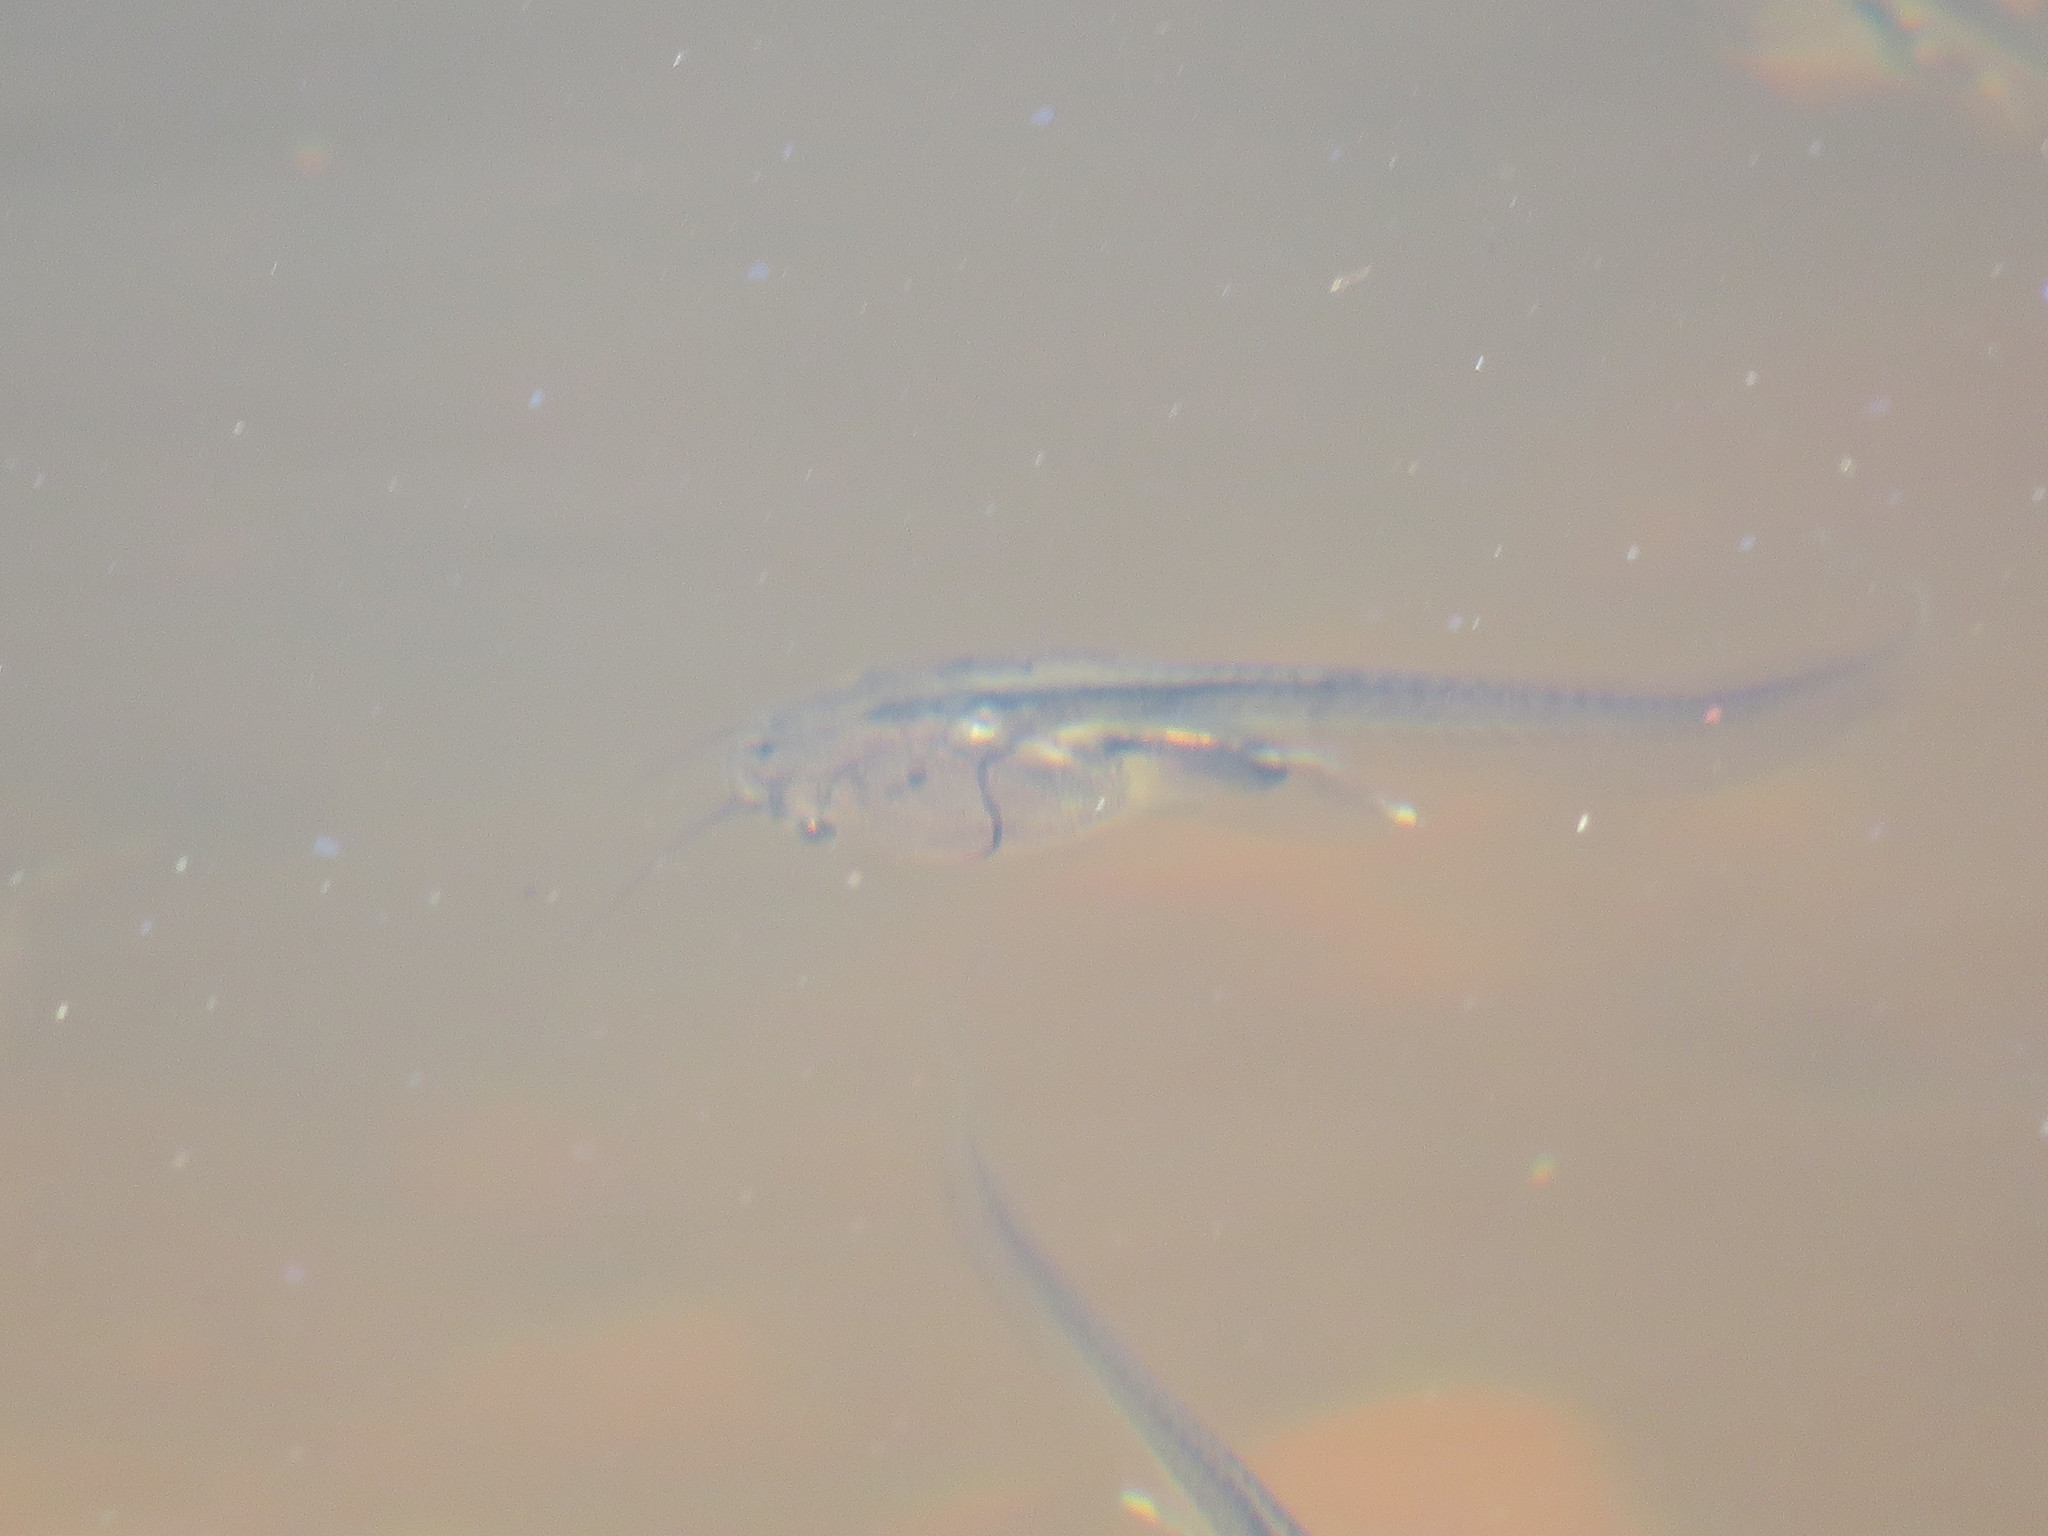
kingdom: Animalia
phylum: Chordata
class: Amphibia
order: Anura
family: Pipidae
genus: Xenopus
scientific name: Xenopus laevis
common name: African clawed frog
